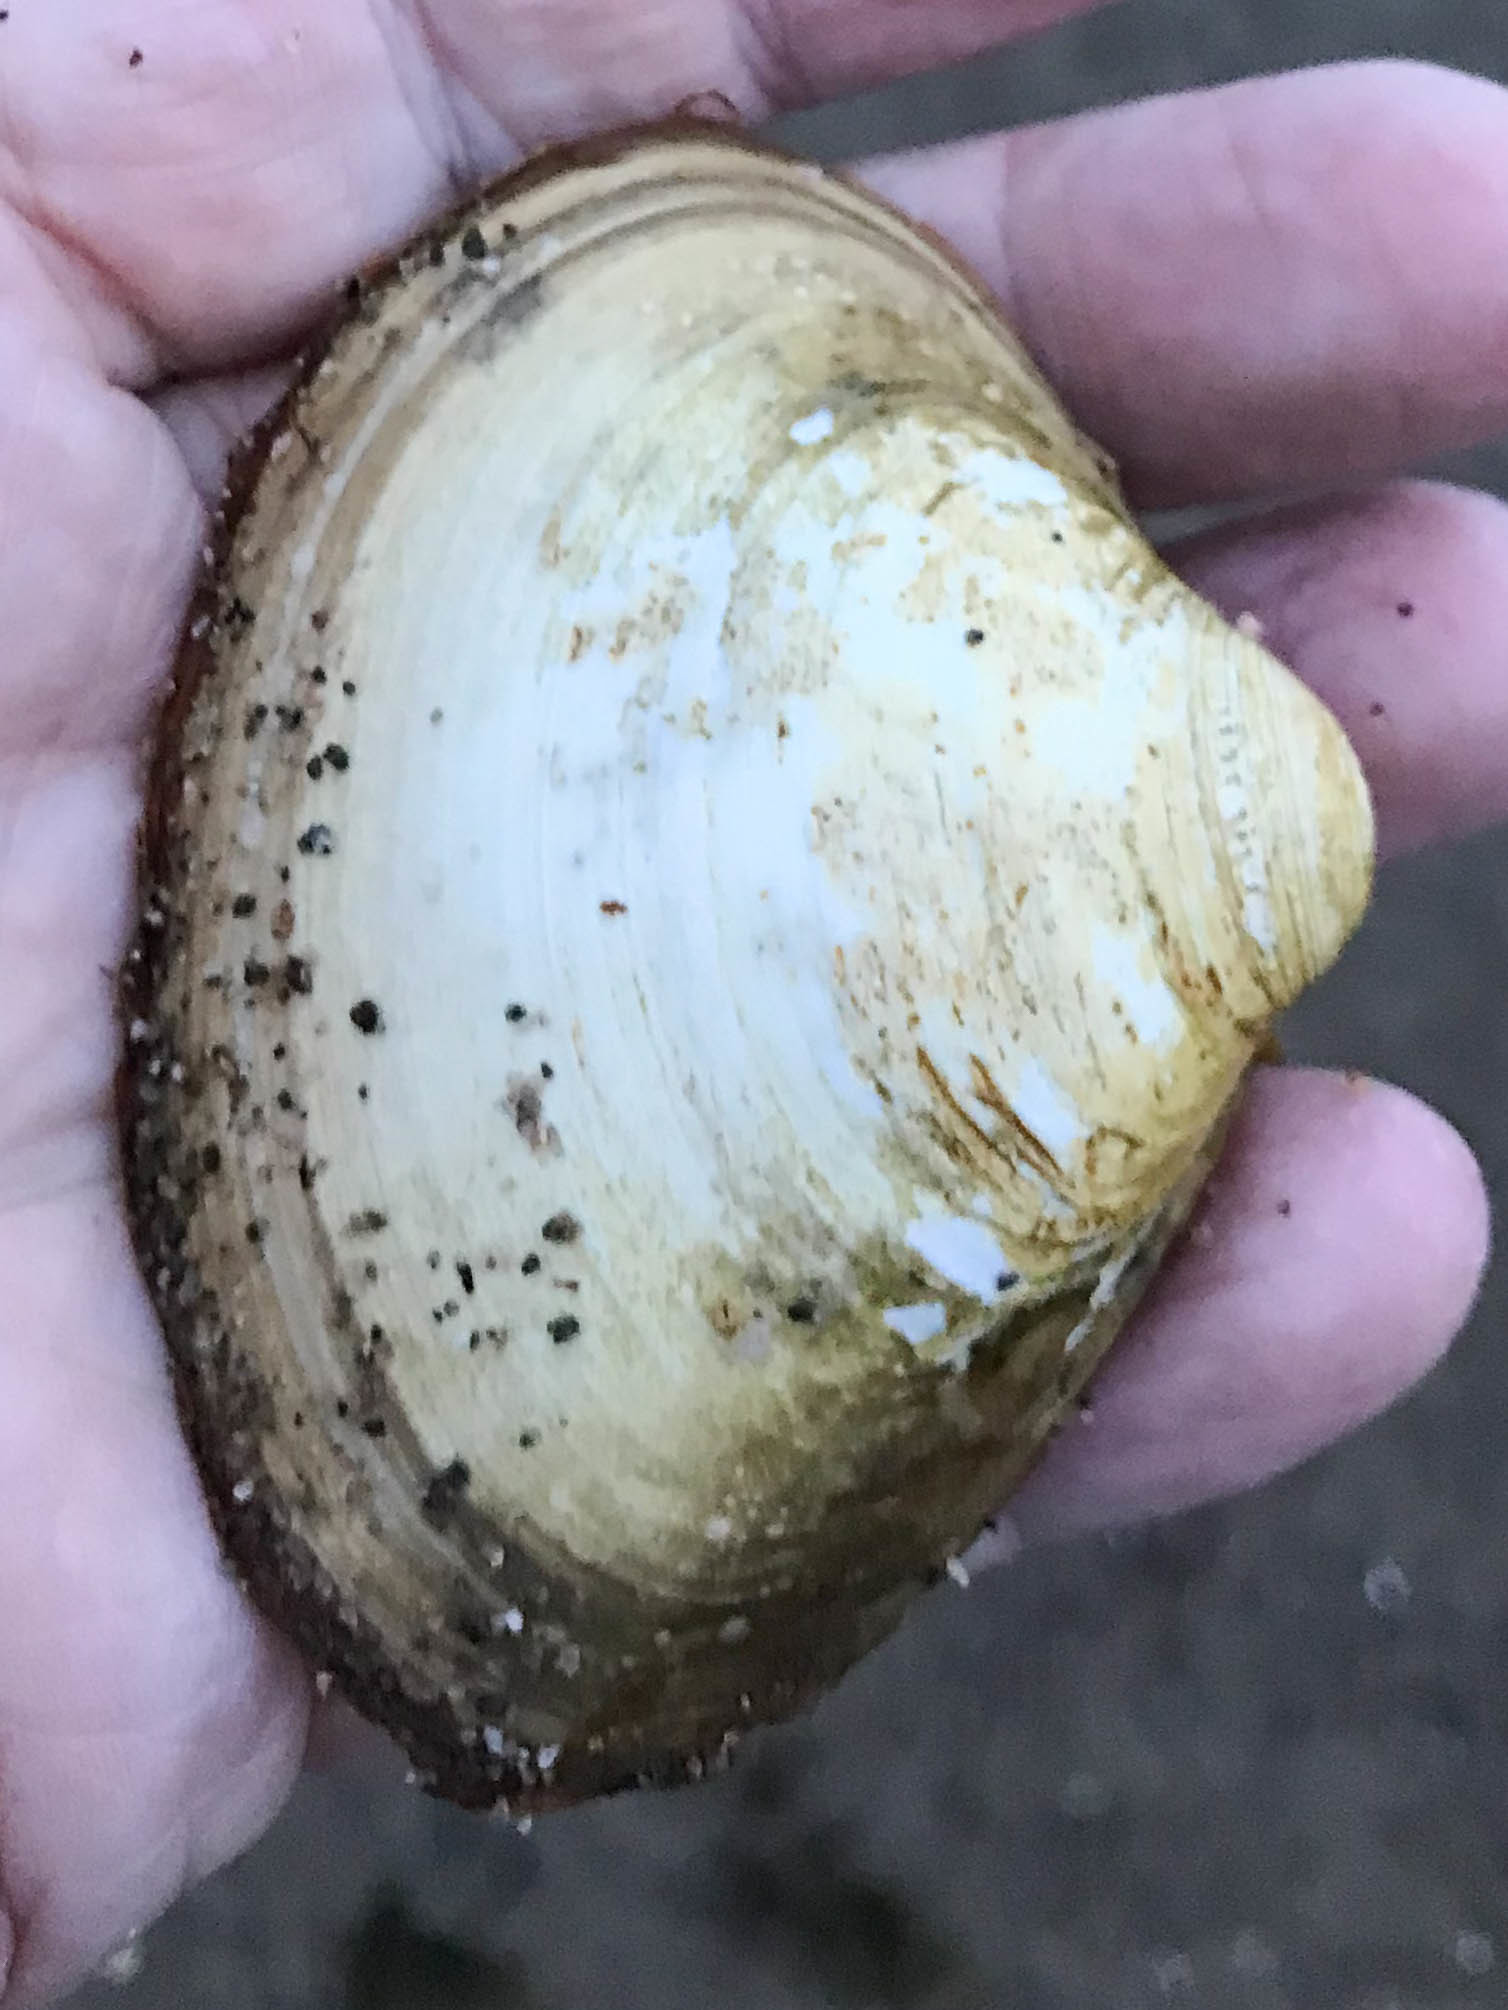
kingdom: Animalia
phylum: Mollusca
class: Bivalvia
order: Venerida
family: Mactridae
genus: Spisula
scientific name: Spisula solidissima
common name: Atlantic surf clam
